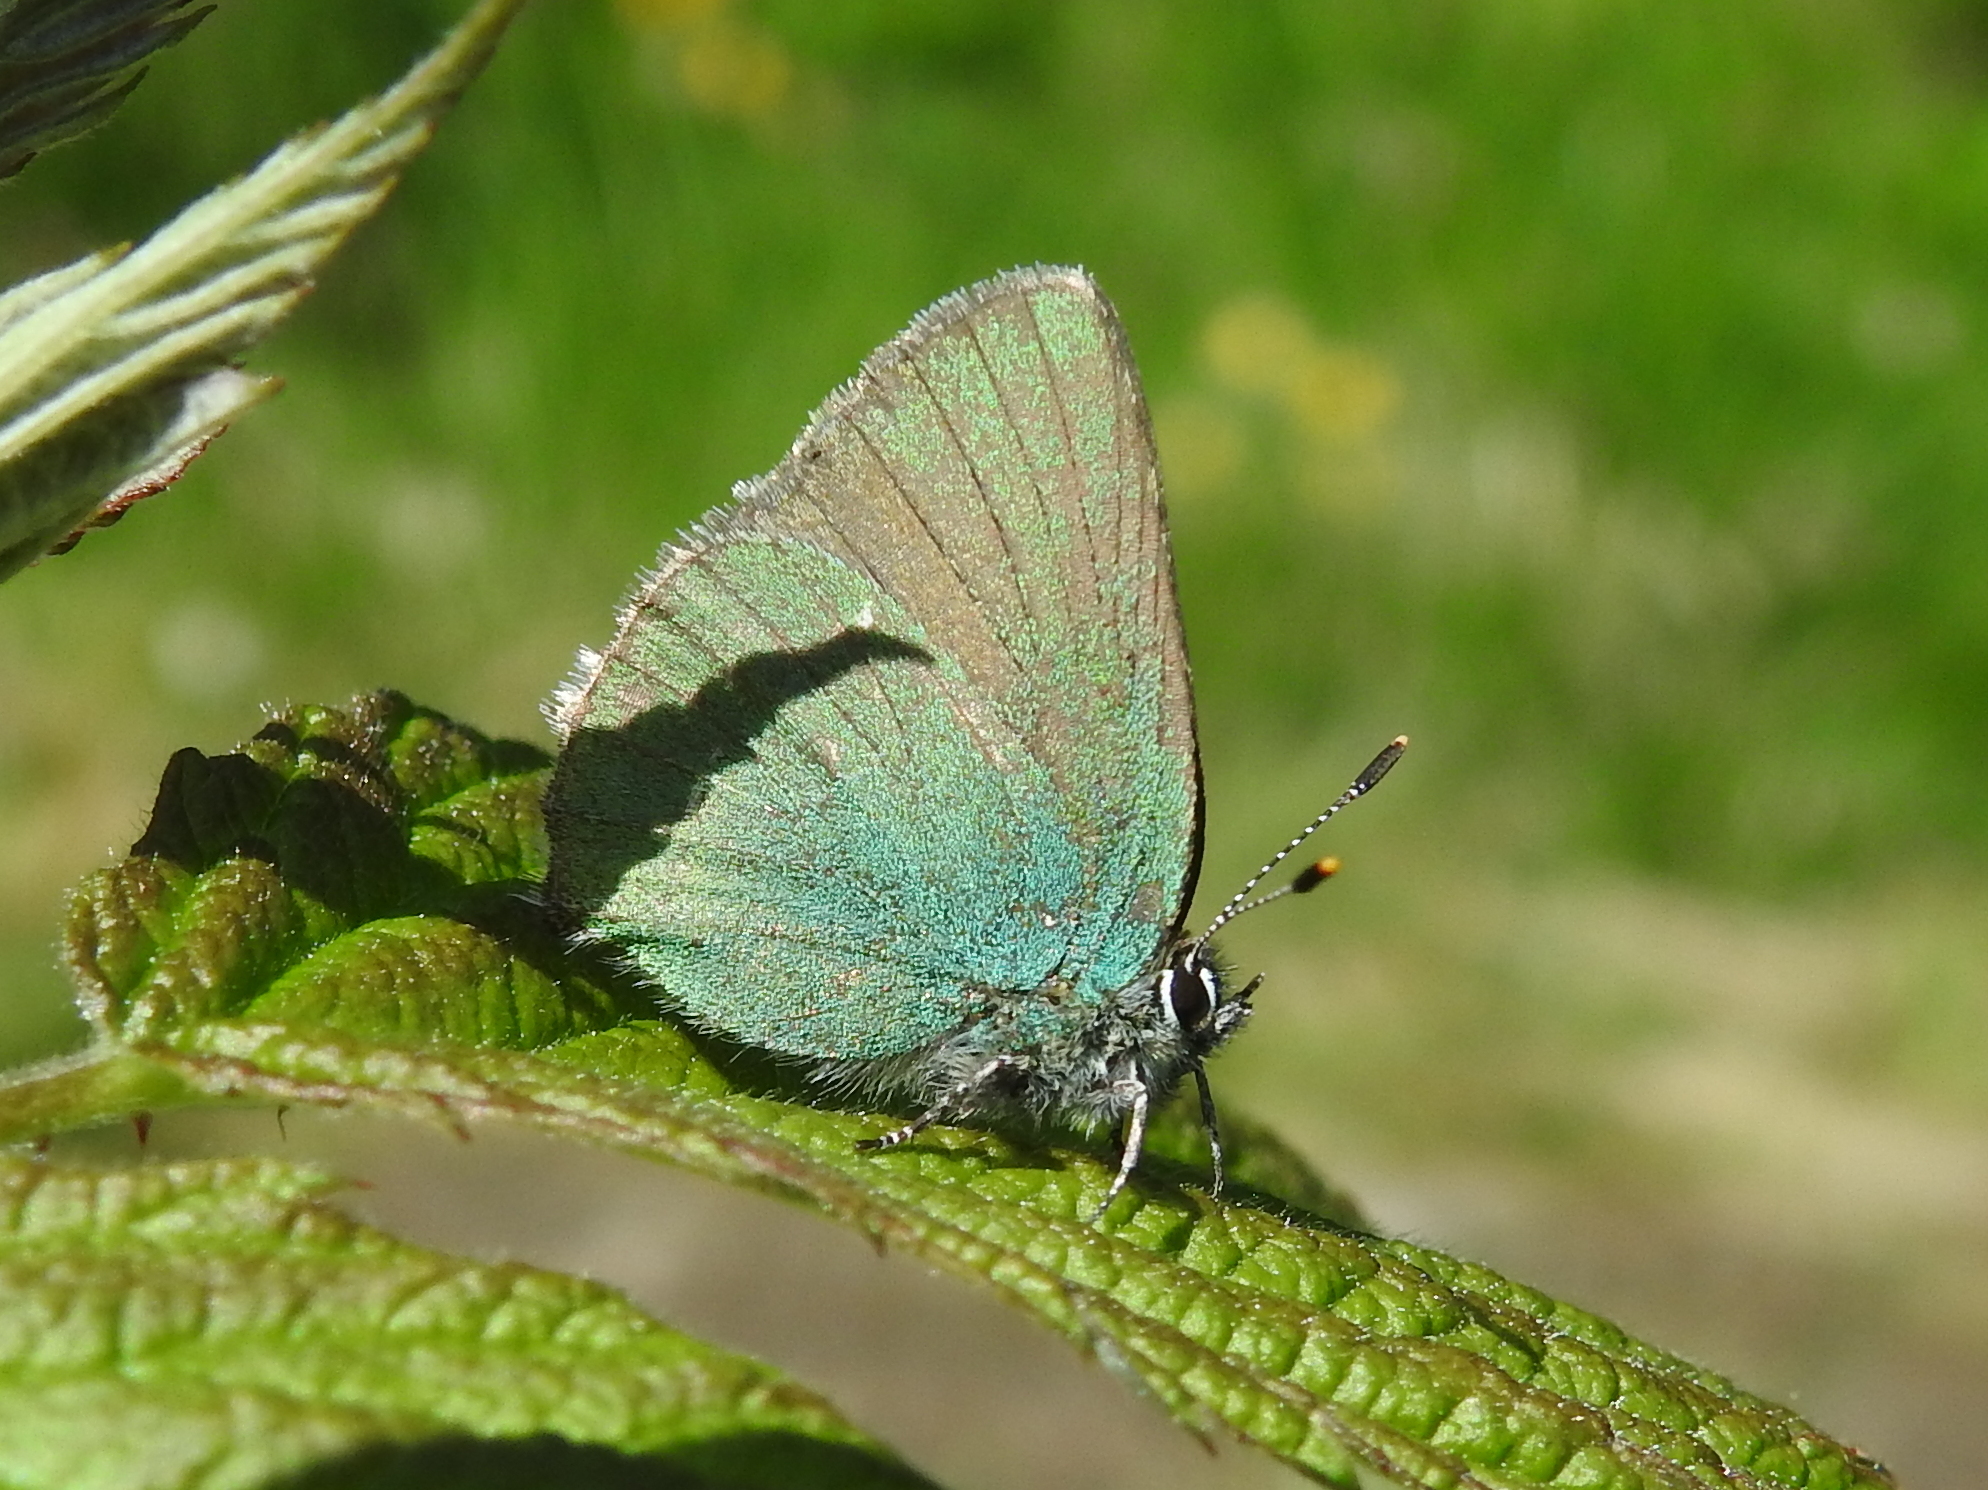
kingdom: Animalia
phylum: Arthropoda
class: Insecta
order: Lepidoptera
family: Lycaenidae
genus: Callophrys
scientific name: Callophrys rubi
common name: Green hairstreak
